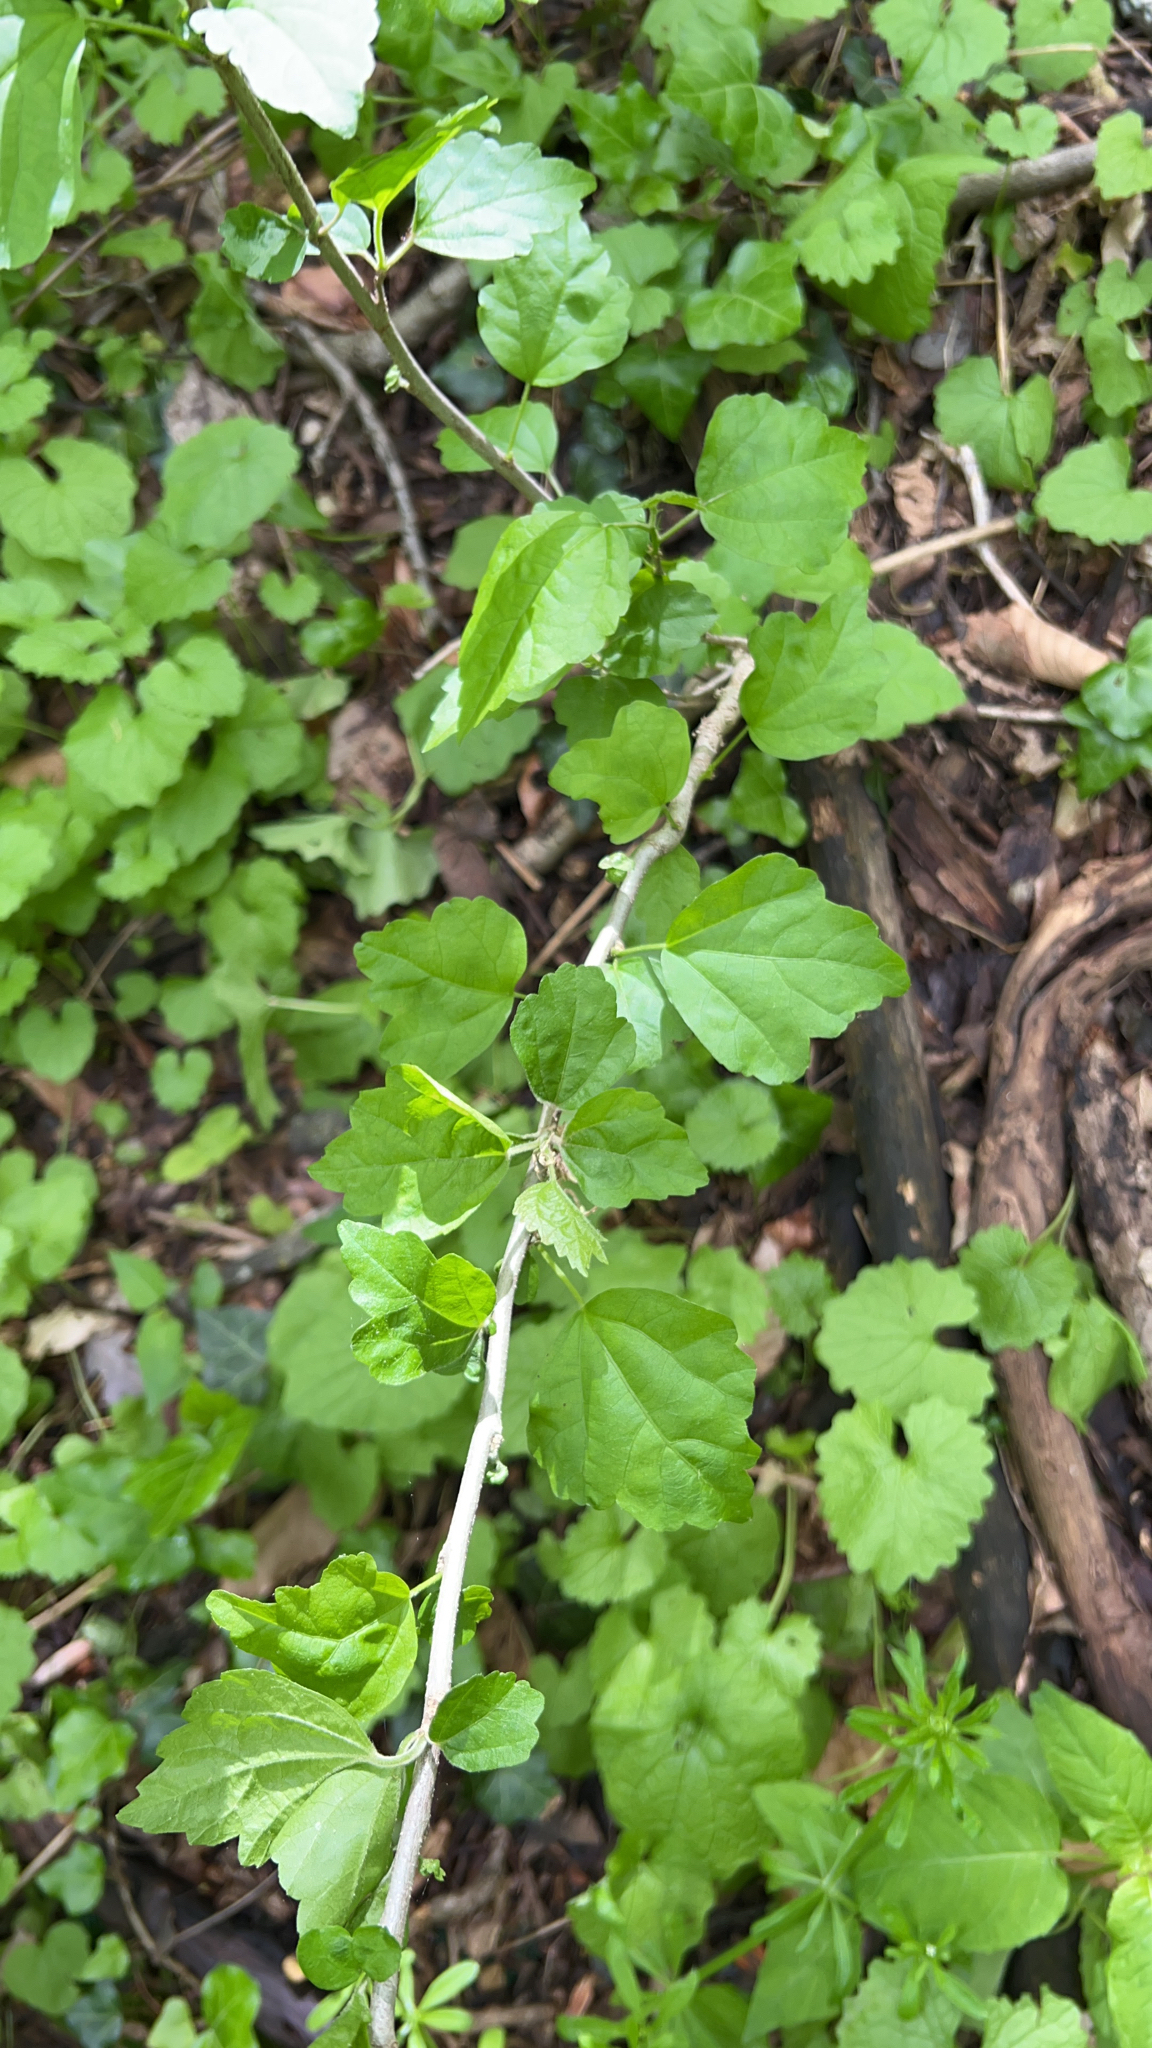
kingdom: Plantae
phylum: Tracheophyta
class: Magnoliopsida
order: Malvales
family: Malvaceae
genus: Hibiscus
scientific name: Hibiscus syriacus
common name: Syrian ketmia
